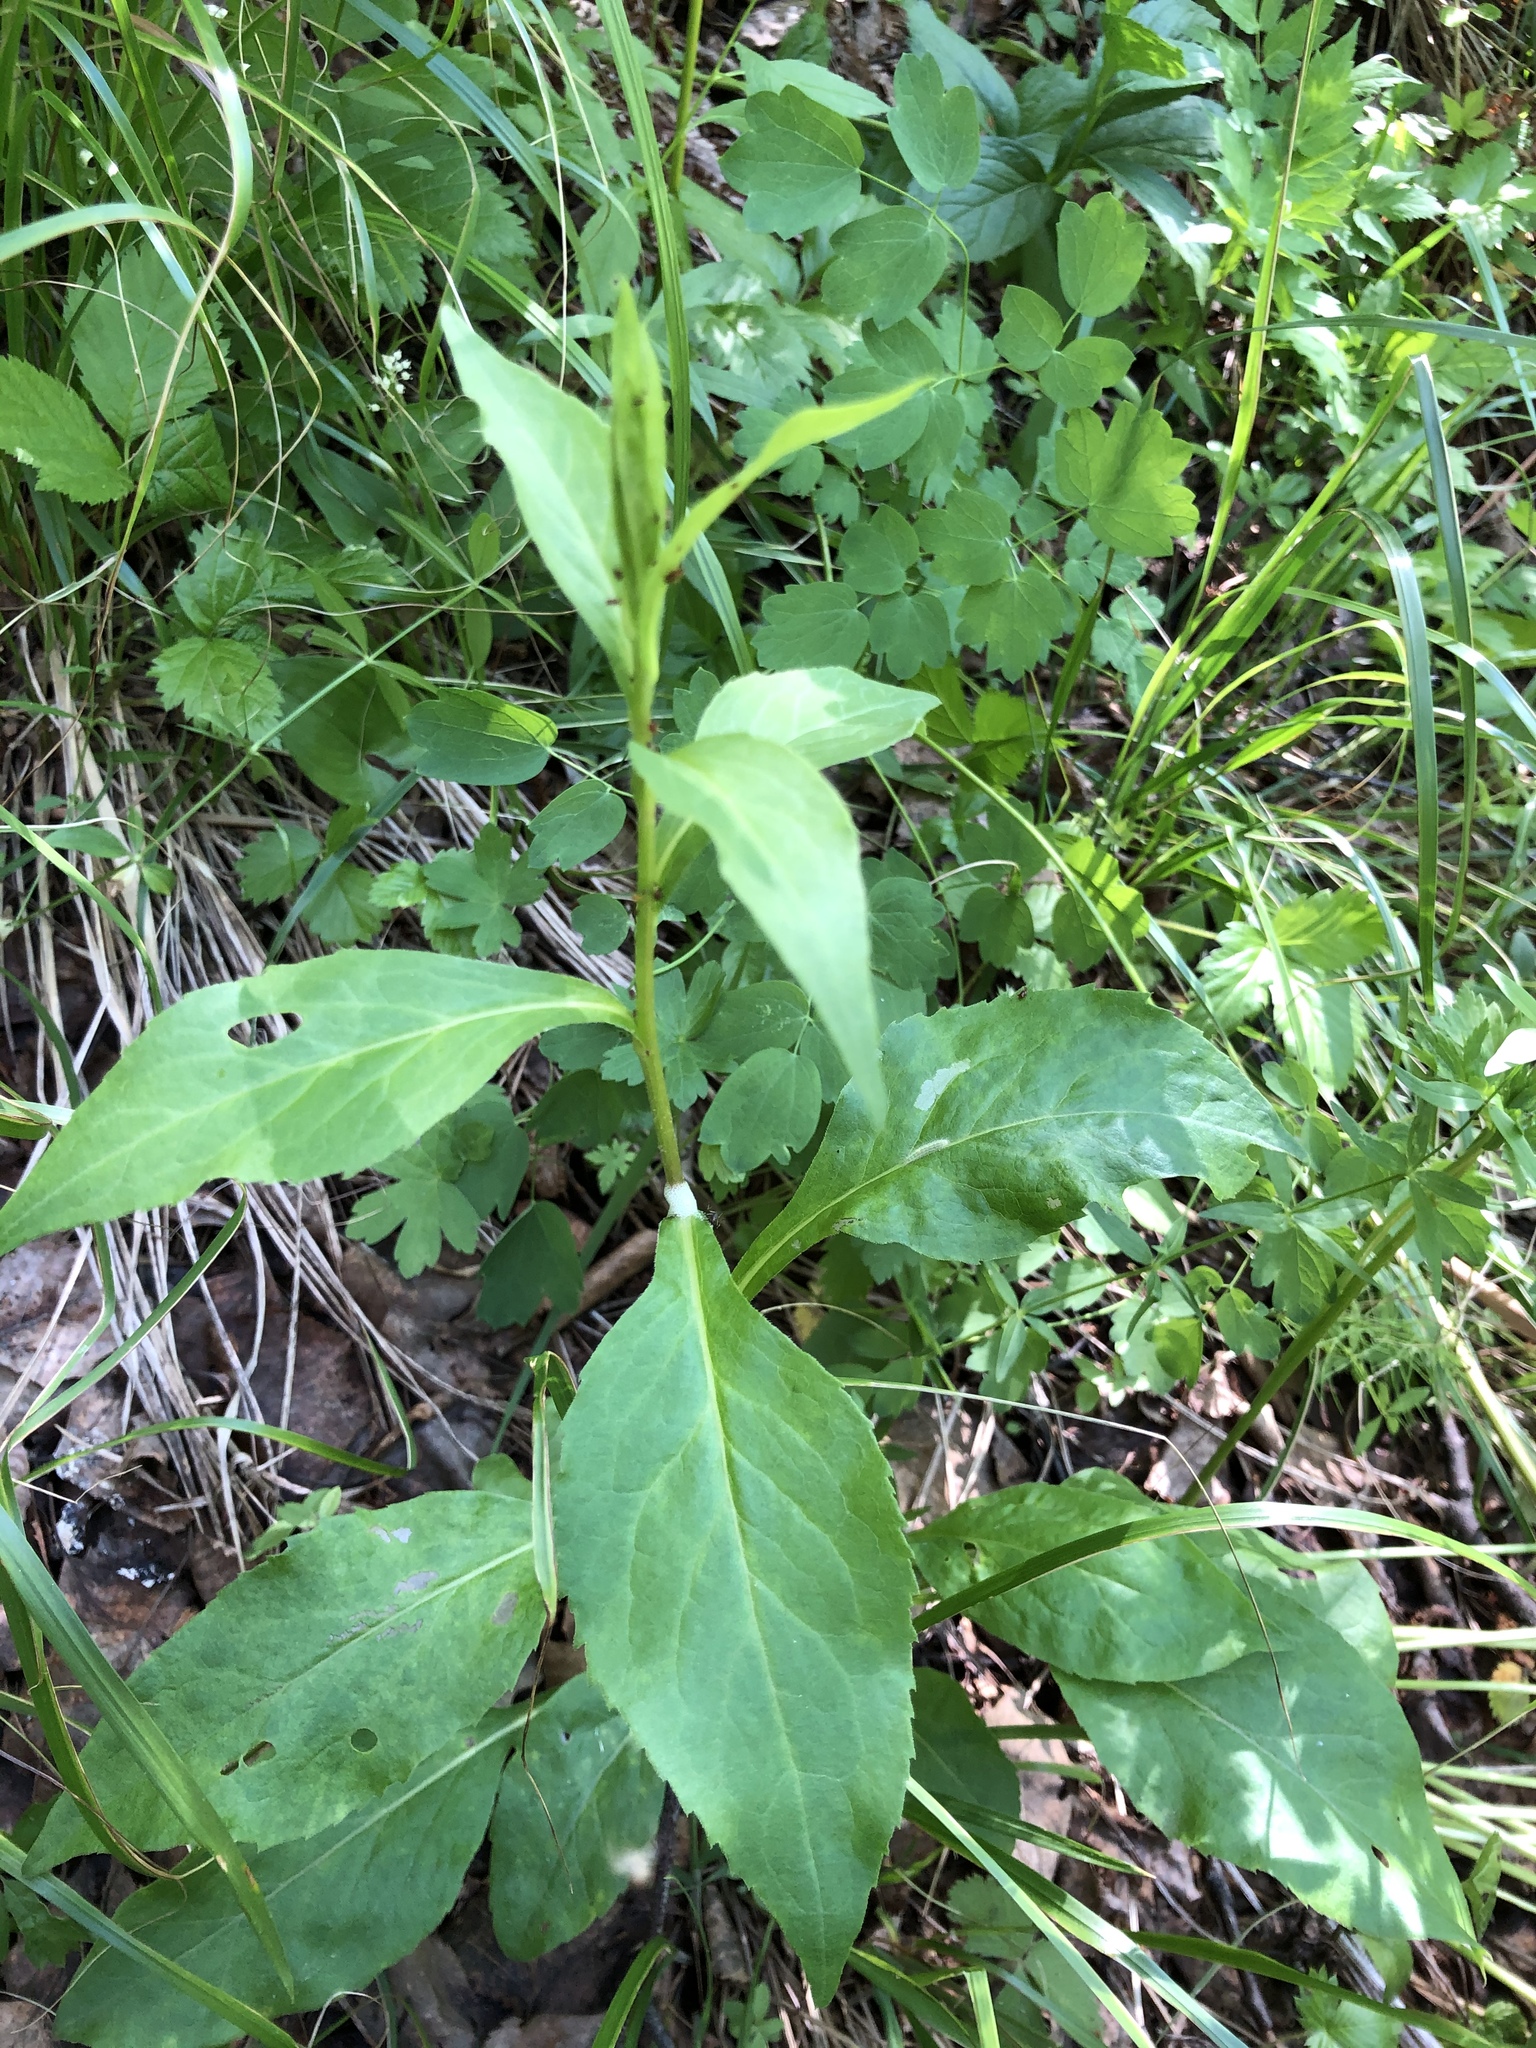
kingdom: Plantae
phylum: Tracheophyta
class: Magnoliopsida
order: Asterales
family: Asteraceae
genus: Solidago
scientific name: Solidago virgaurea
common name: Goldenrod
